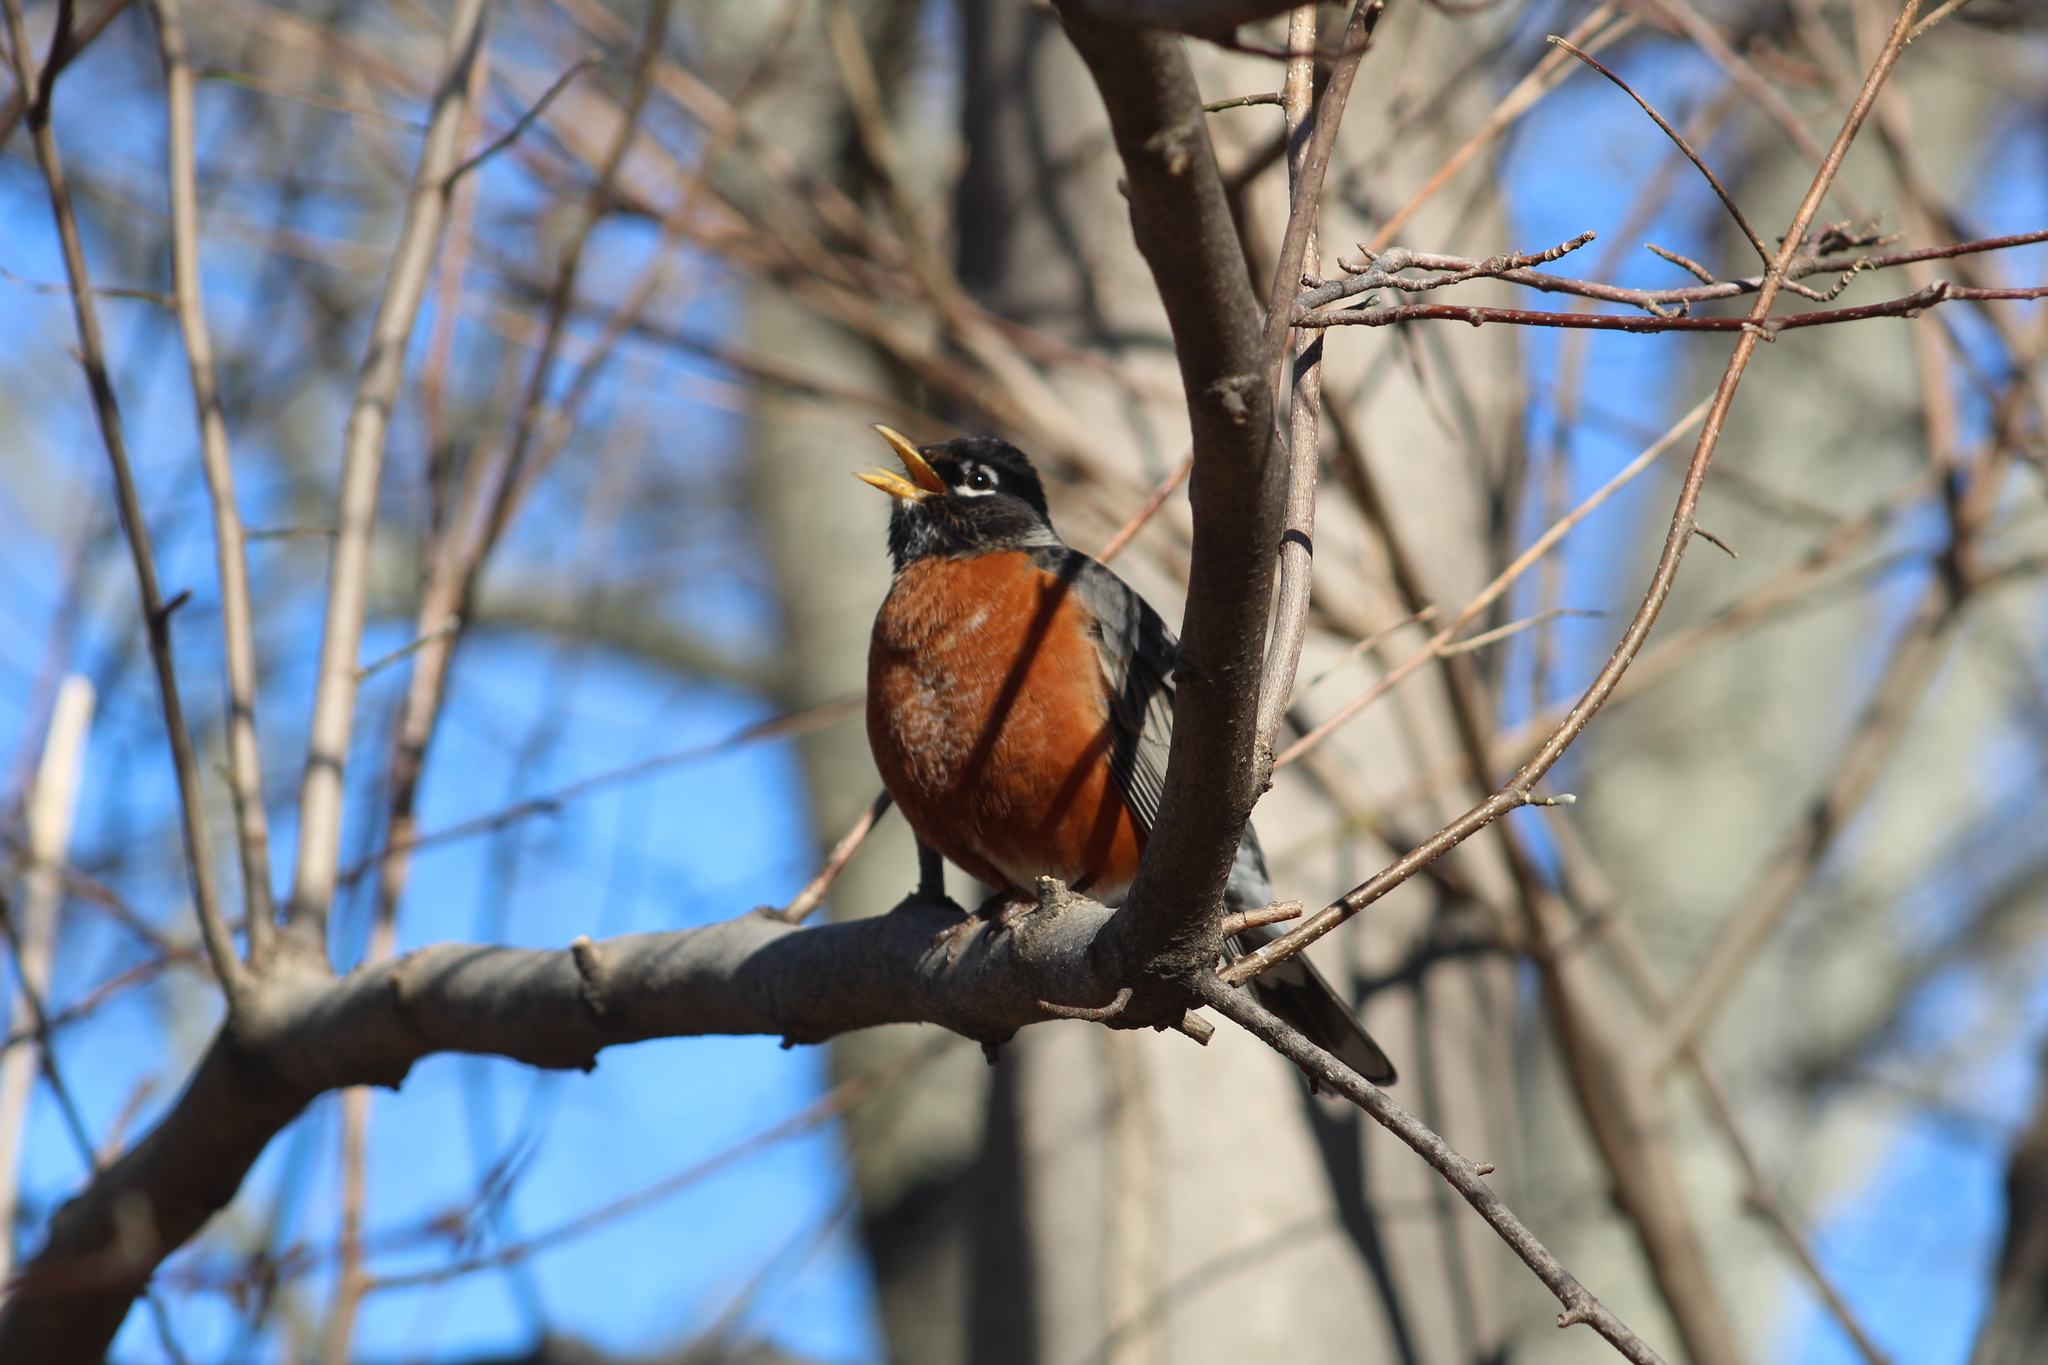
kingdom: Animalia
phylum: Chordata
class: Aves
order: Passeriformes
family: Turdidae
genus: Turdus
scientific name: Turdus migratorius
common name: American robin
